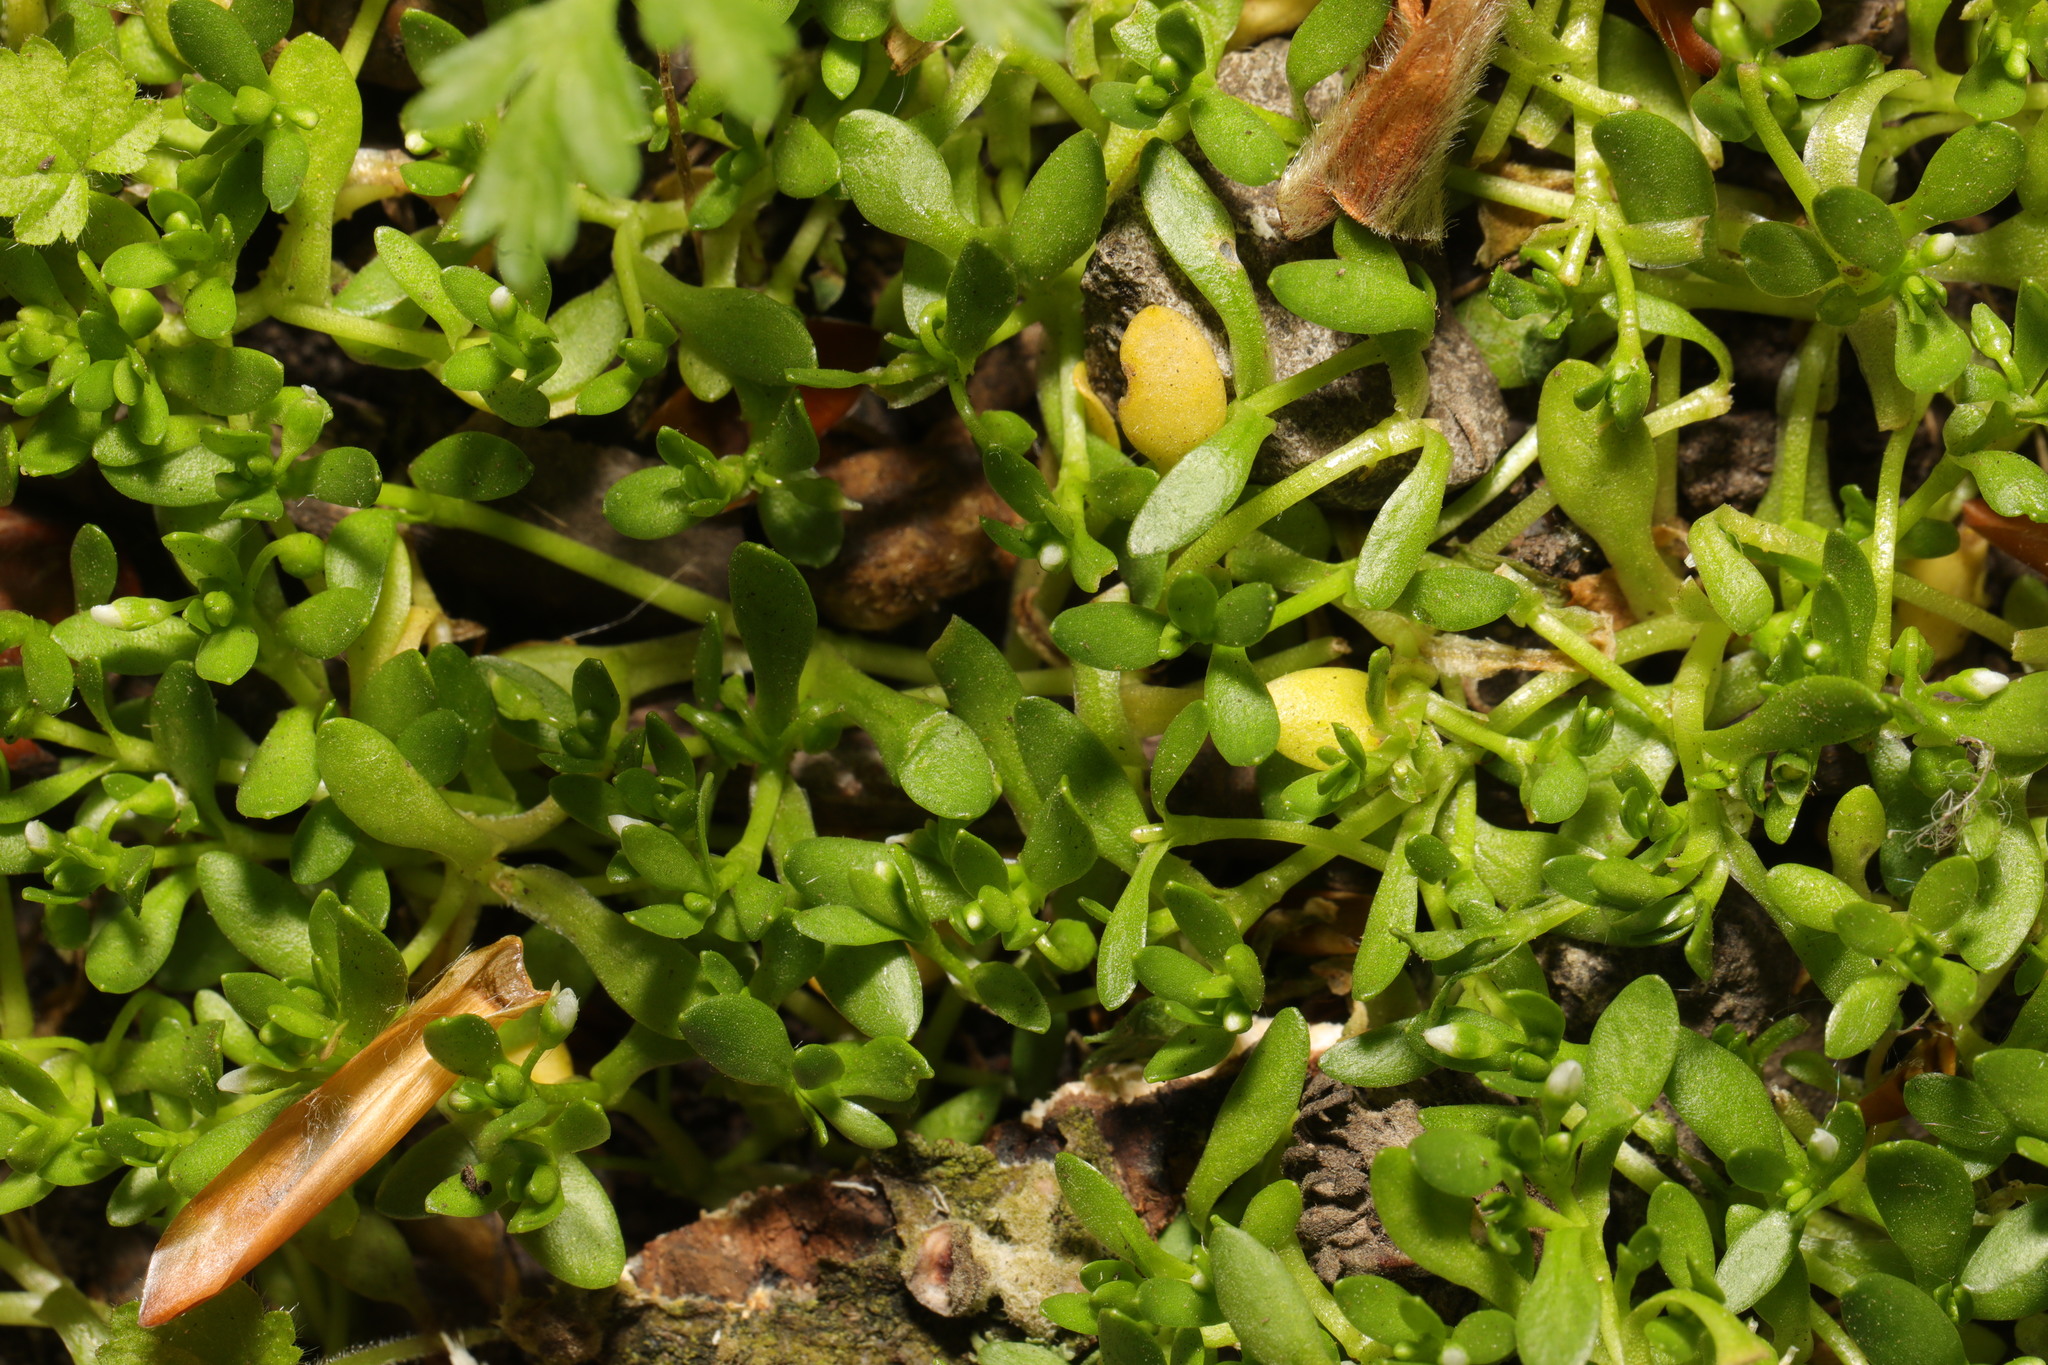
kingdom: Plantae
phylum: Tracheophyta
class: Magnoliopsida
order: Caryophyllales
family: Montiaceae
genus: Montia
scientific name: Montia fontana
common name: Blinks
